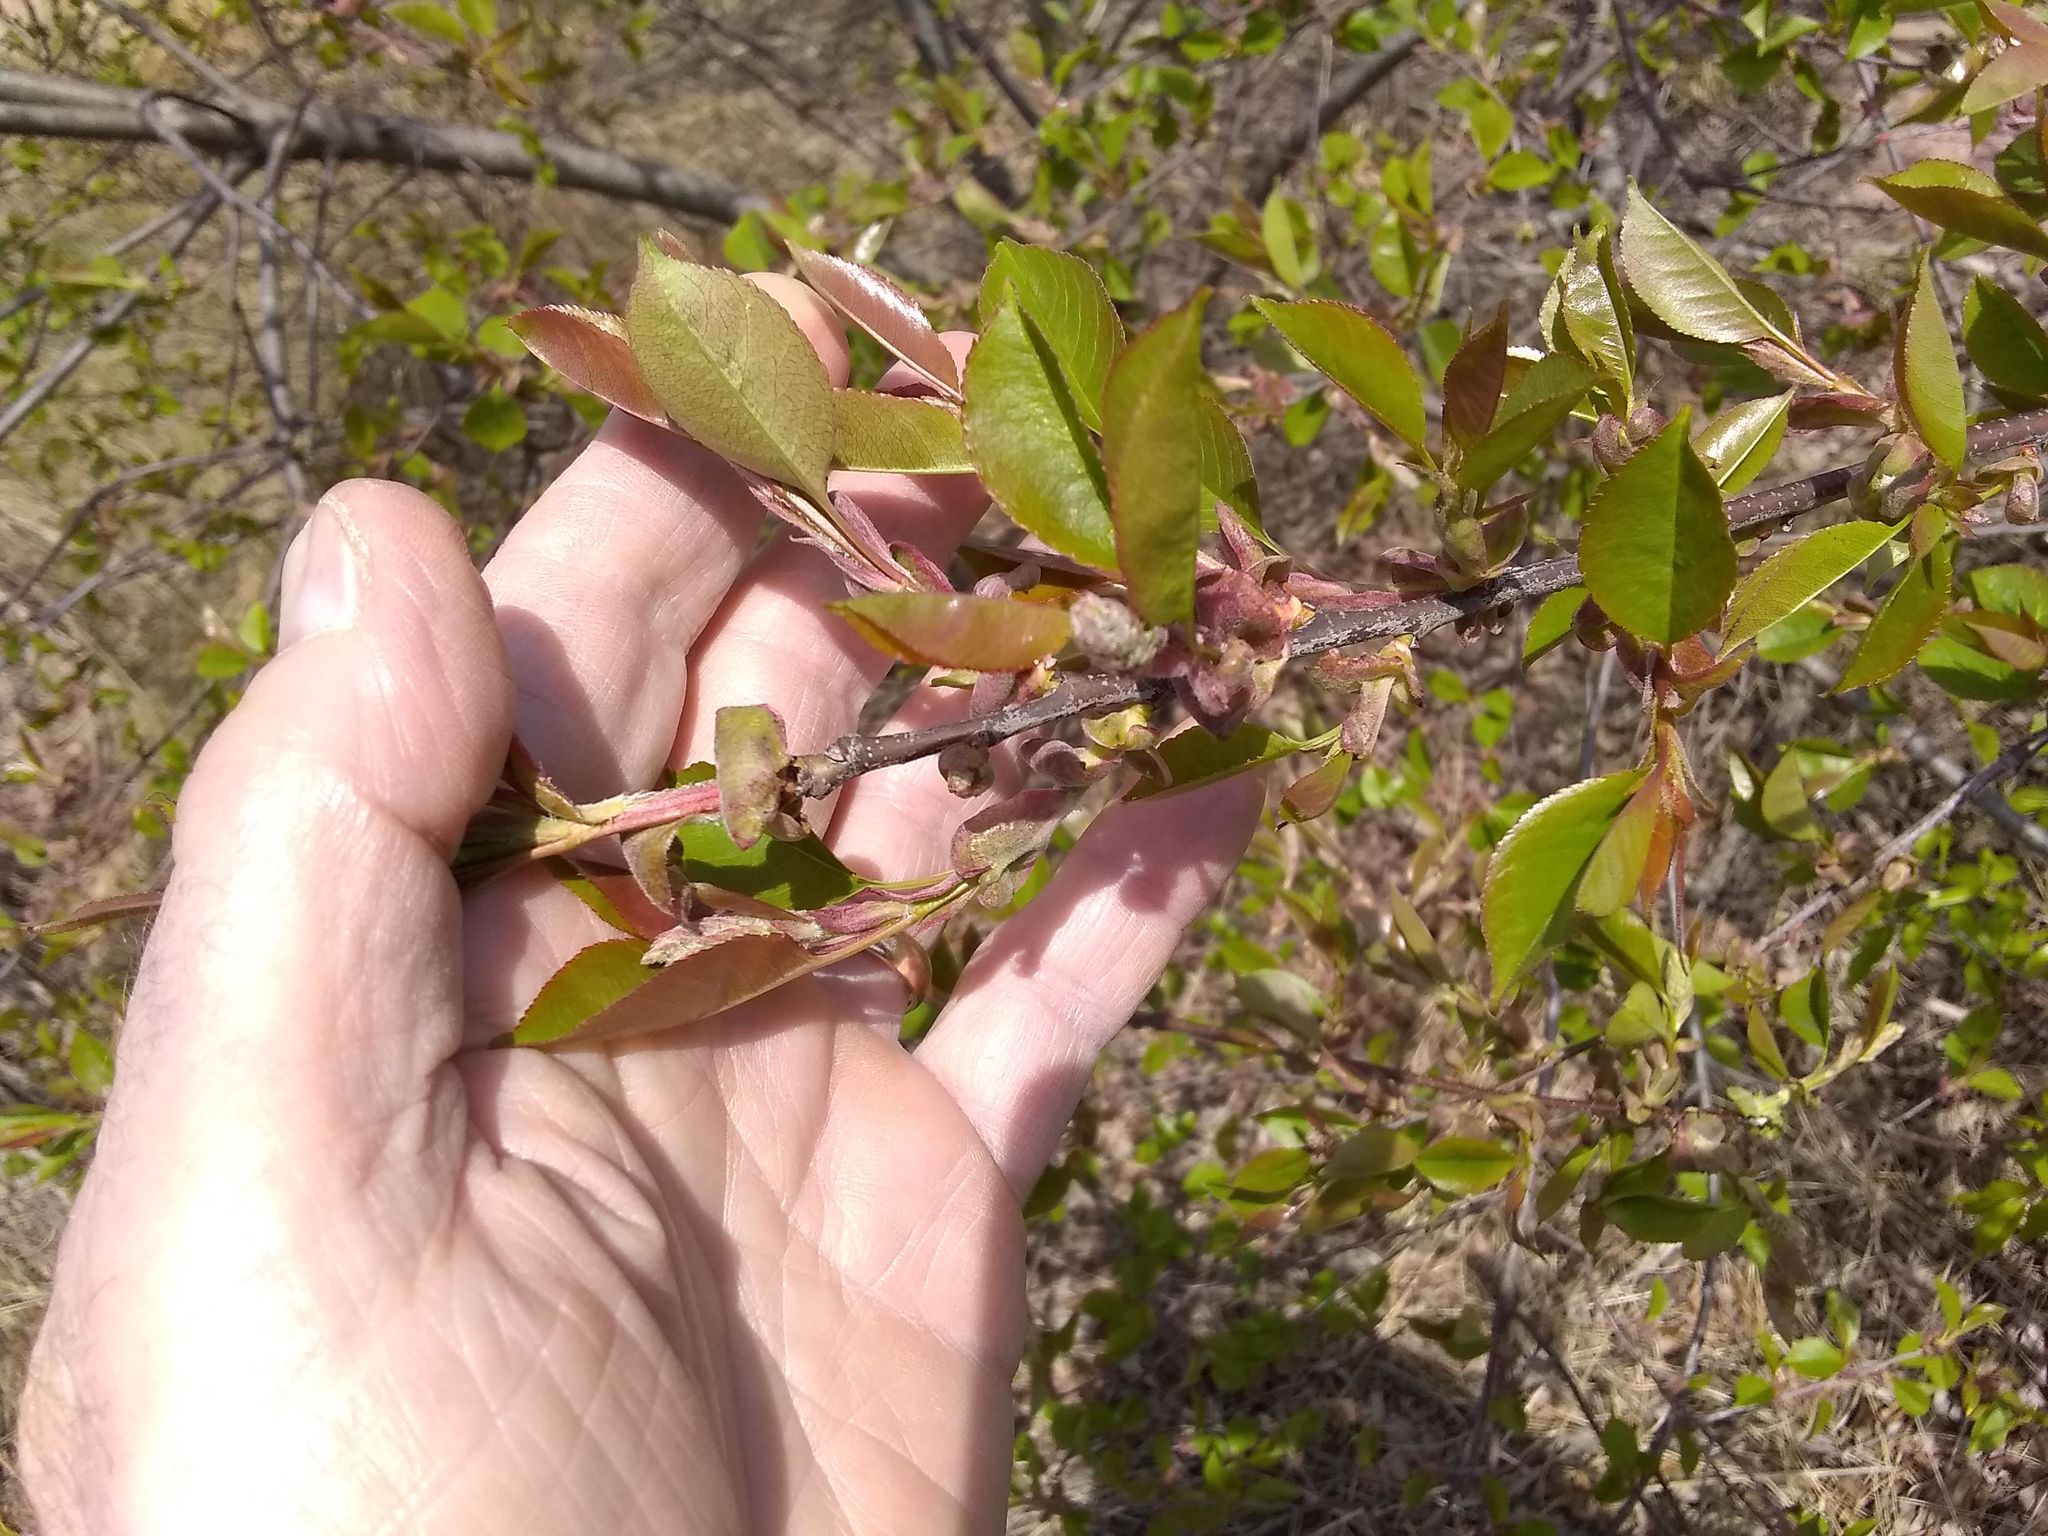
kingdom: Plantae
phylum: Tracheophyta
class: Magnoliopsida
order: Rosales
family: Rosaceae
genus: Prunus
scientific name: Prunus serotina
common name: Black cherry
